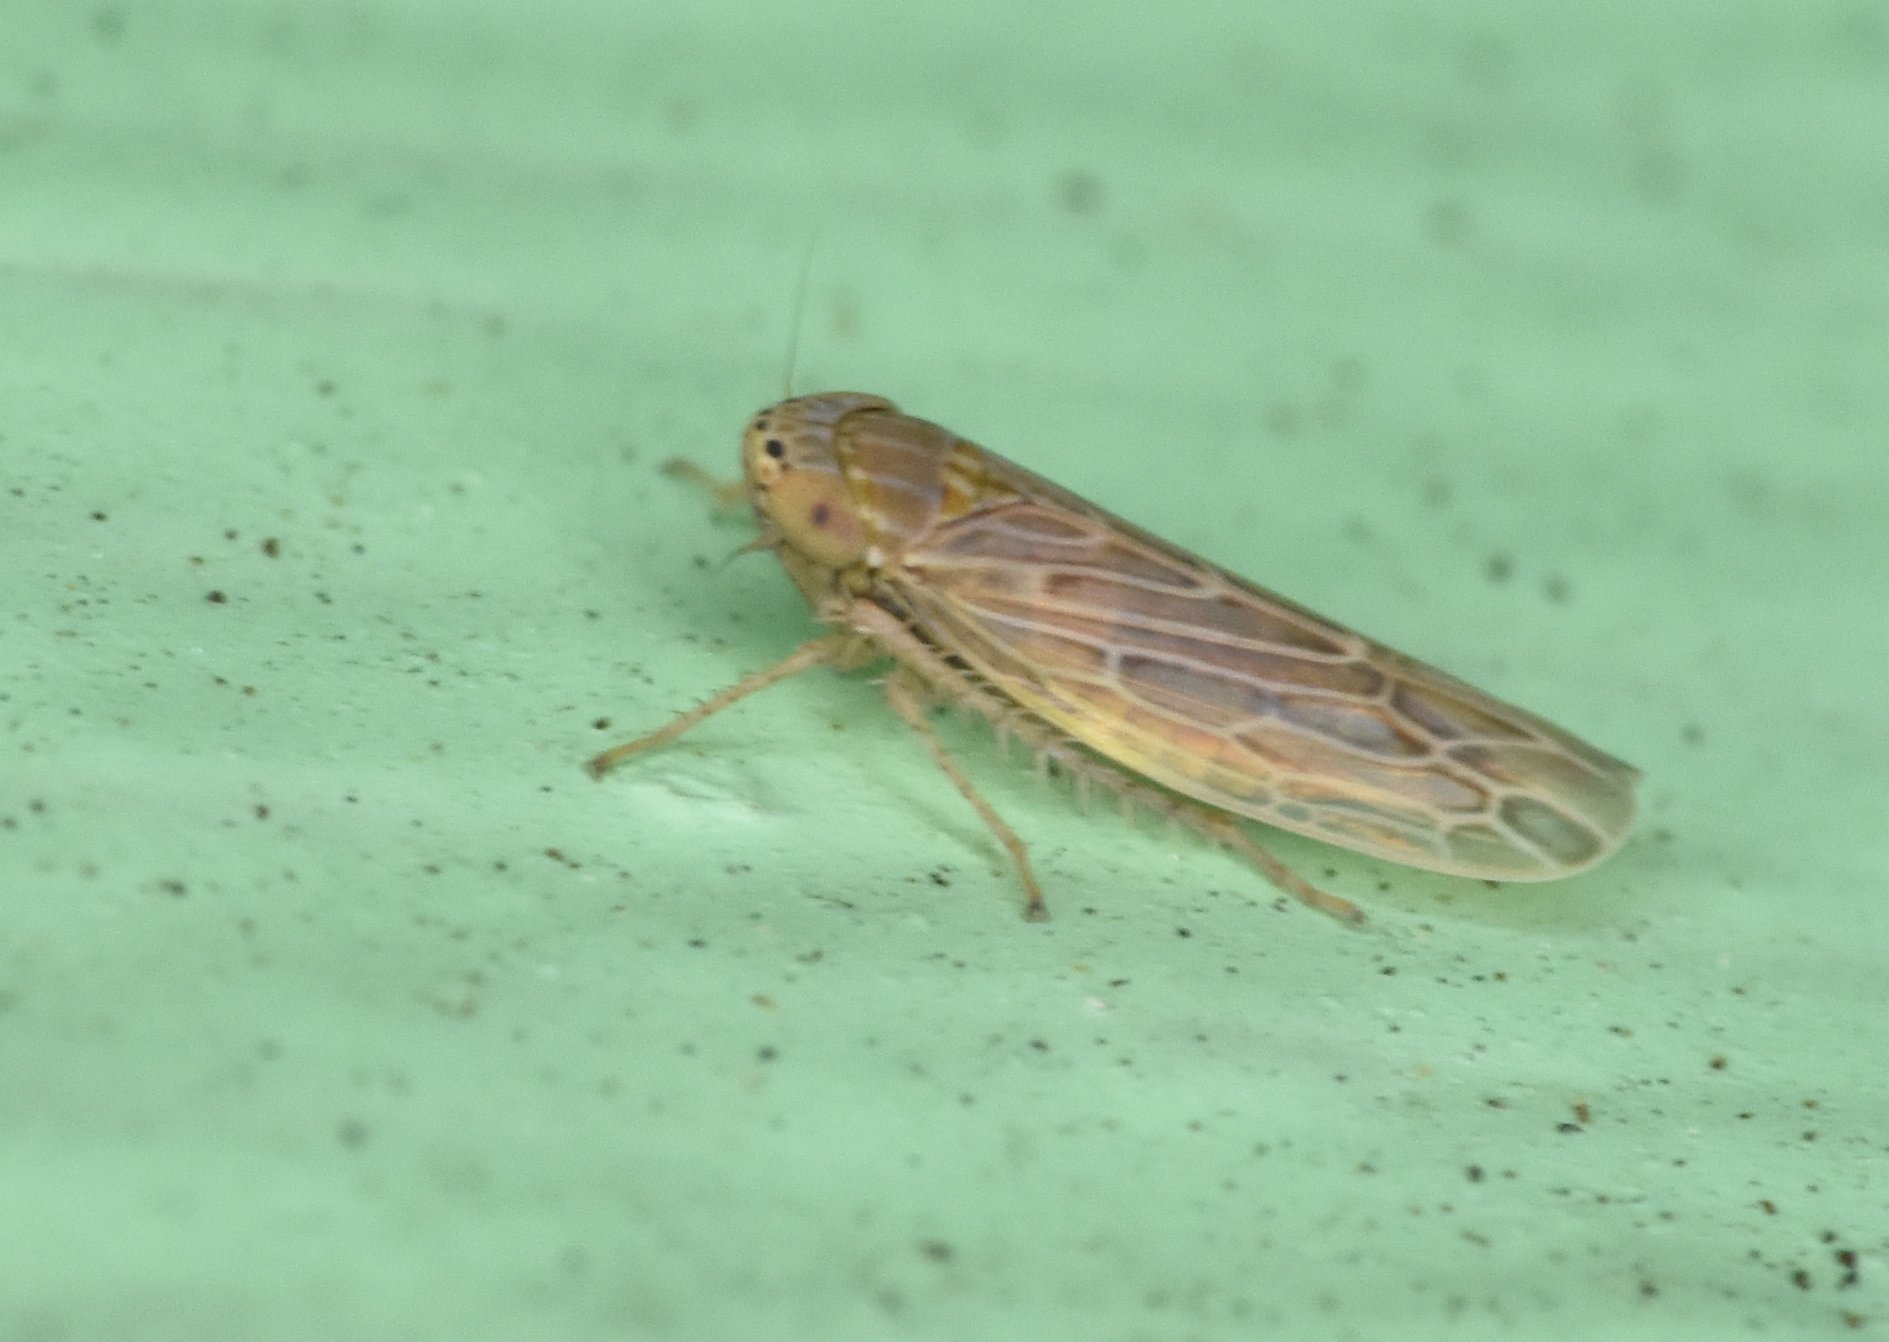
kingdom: Animalia
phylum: Arthropoda
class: Insecta
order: Hemiptera
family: Cicadellidae
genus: Graminella
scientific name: Graminella sonora
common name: Lesser lawn leafhopper
